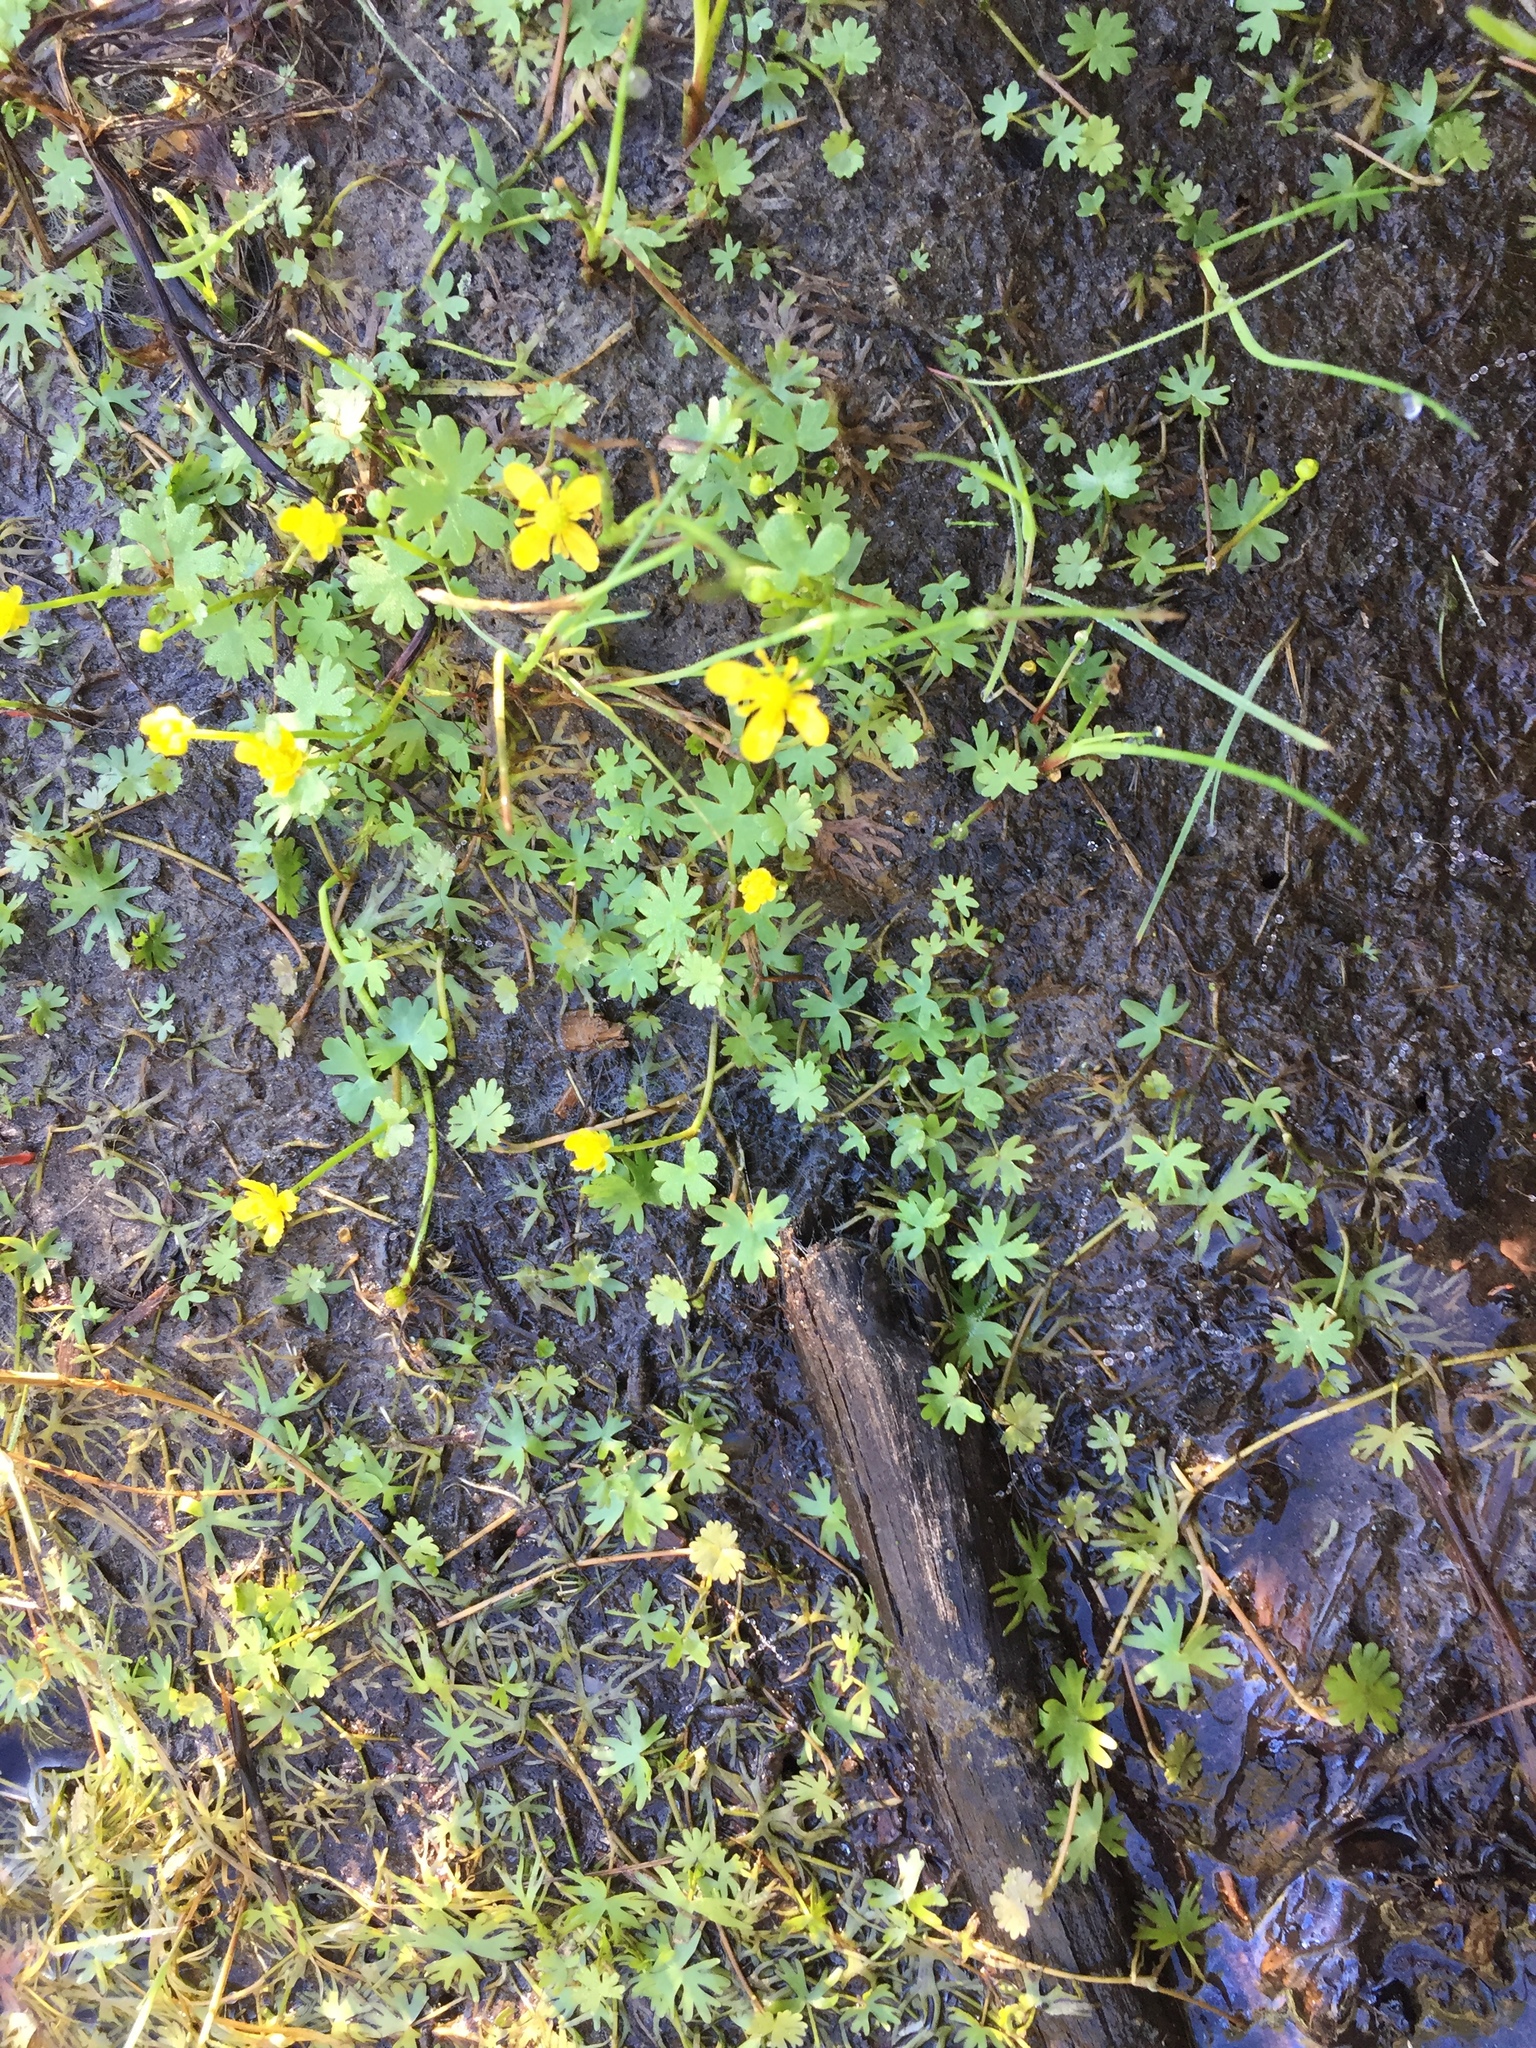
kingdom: Plantae
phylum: Tracheophyta
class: Magnoliopsida
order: Ranunculales
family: Ranunculaceae
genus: Ranunculus
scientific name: Ranunculus gmelinii
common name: Gmelin's buttercup
